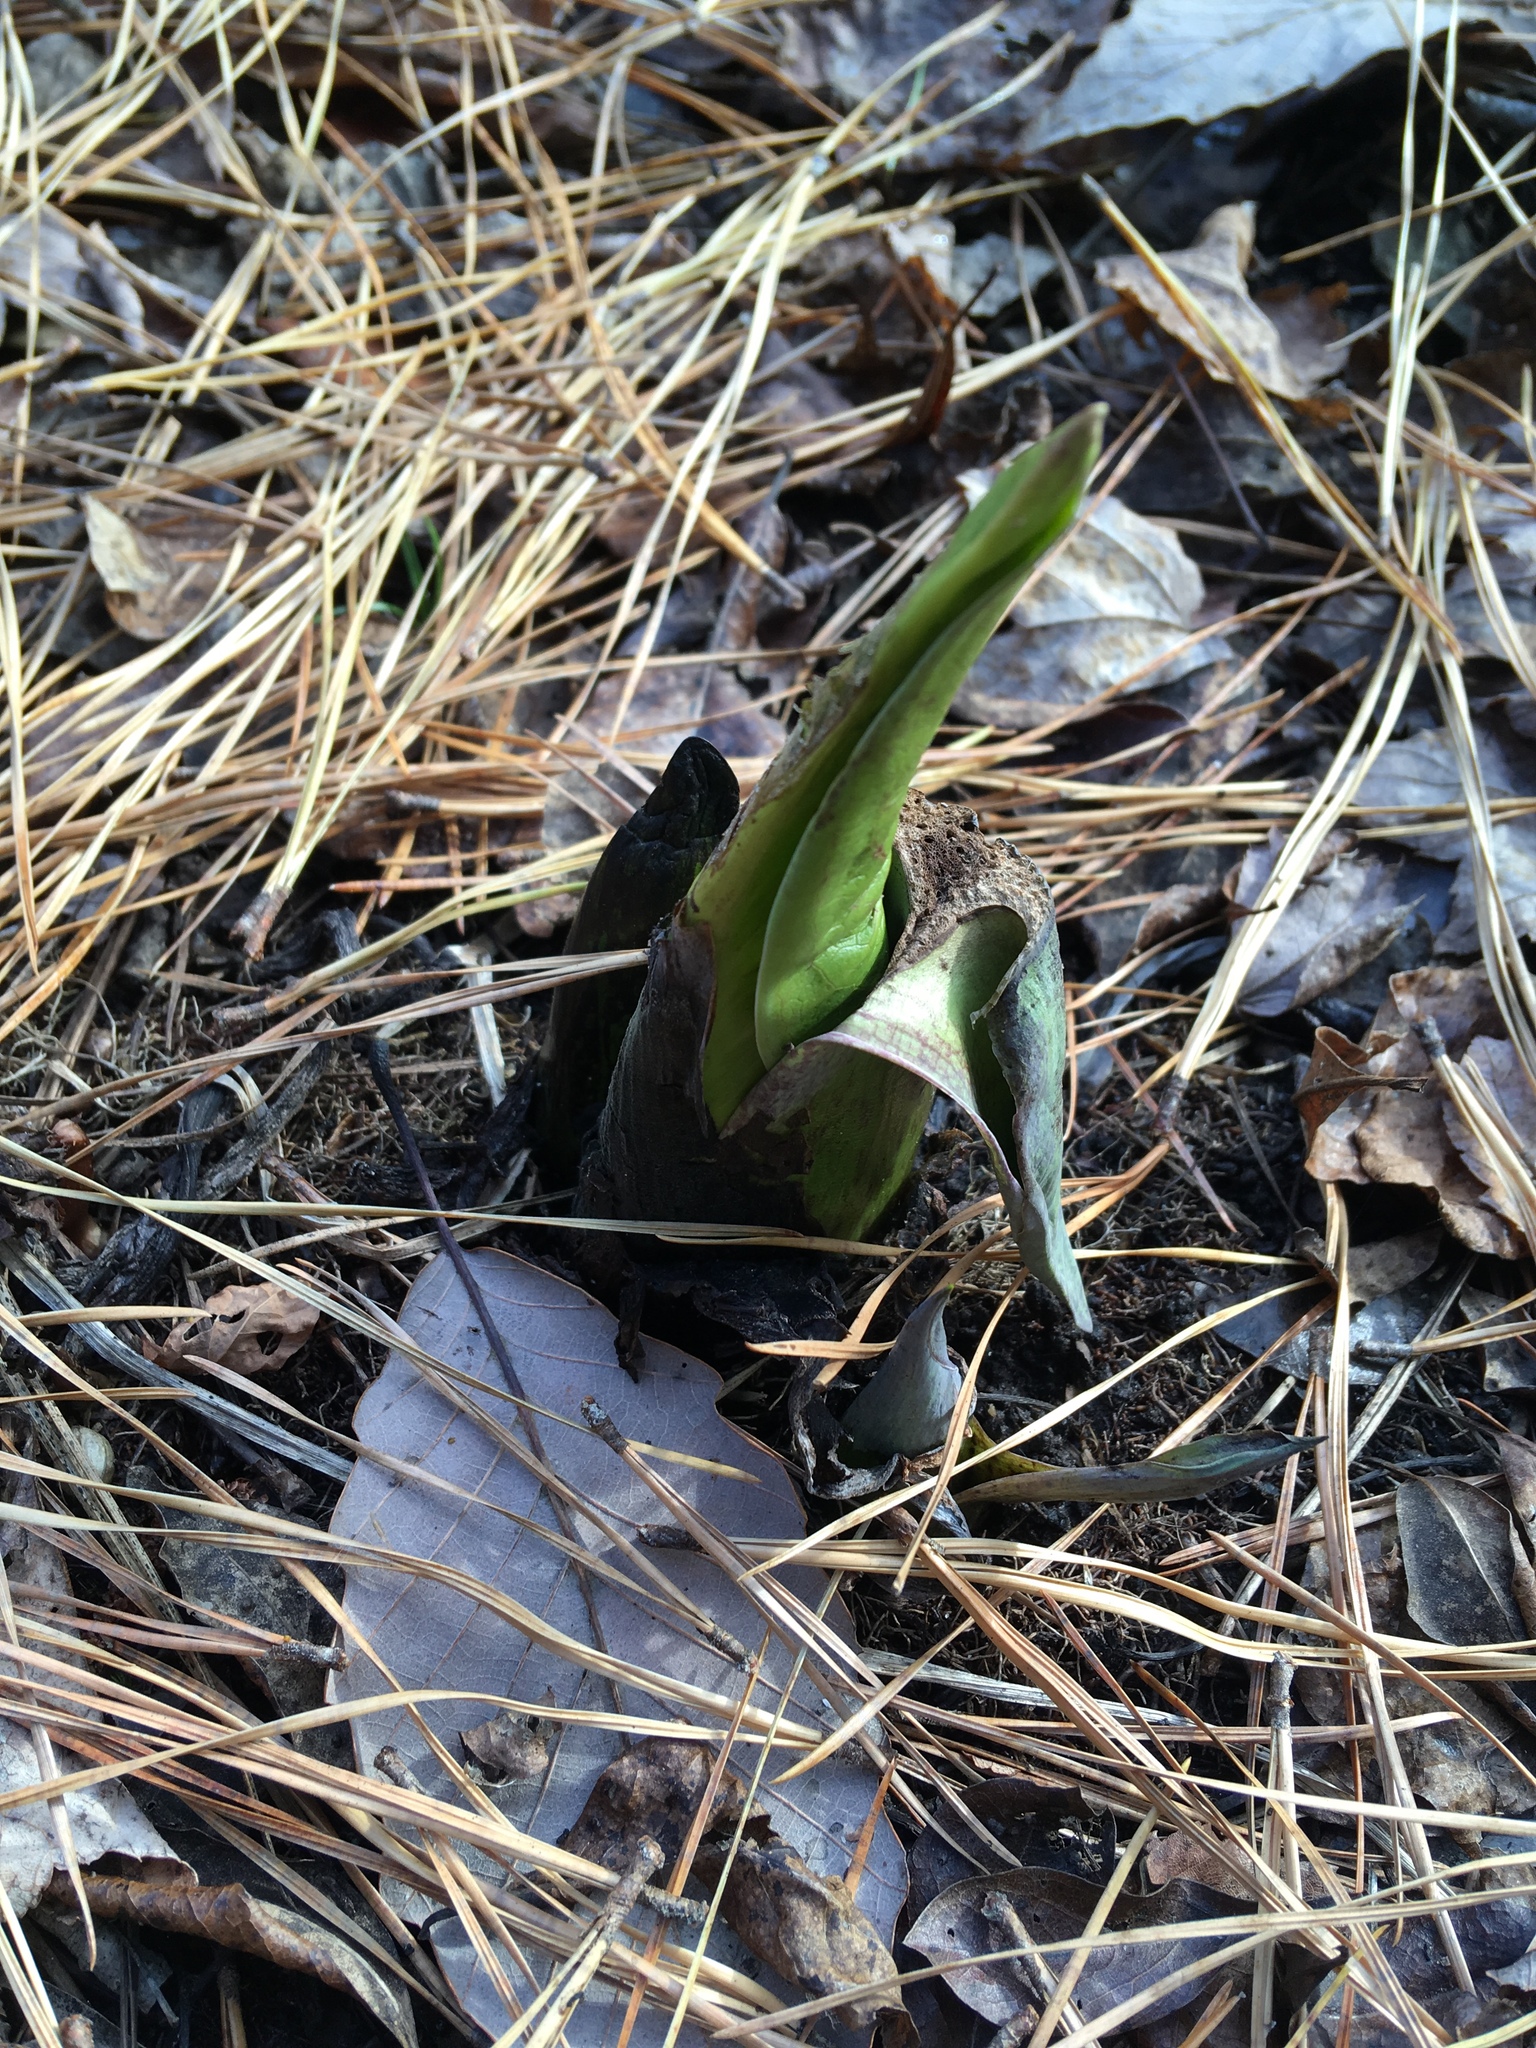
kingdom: Plantae
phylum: Tracheophyta
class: Liliopsida
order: Alismatales
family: Araceae
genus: Symplocarpus
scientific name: Symplocarpus foetidus
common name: Eastern skunk cabbage
